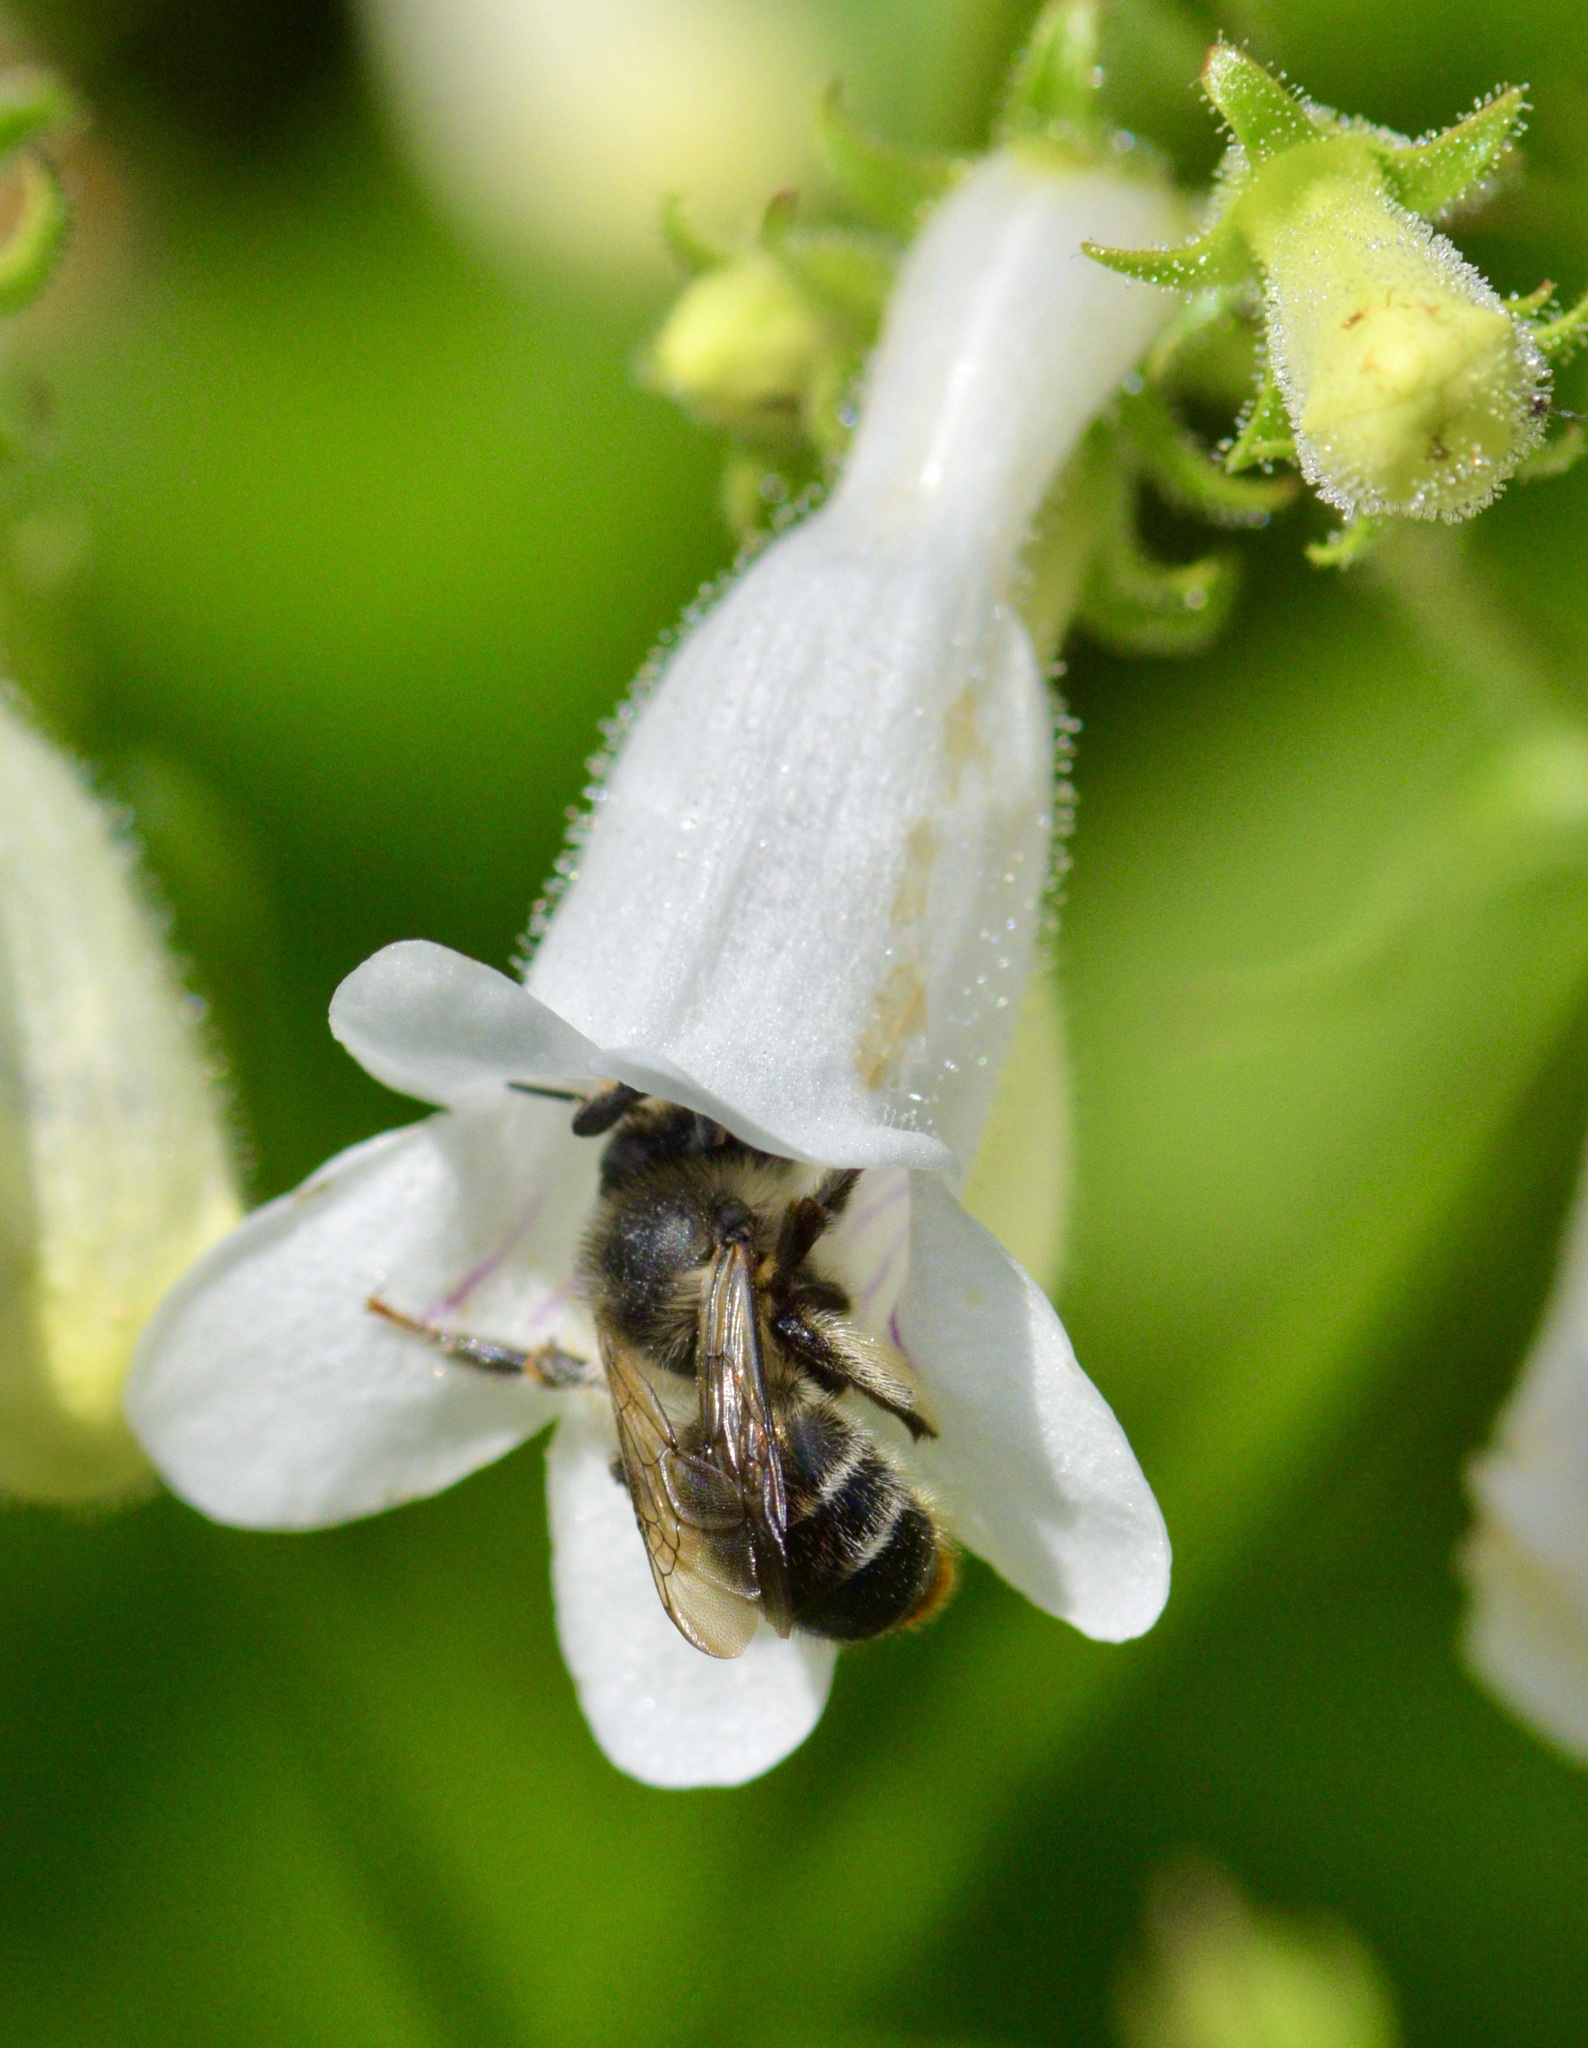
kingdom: Animalia
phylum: Arthropoda
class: Insecta
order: Hymenoptera
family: Apidae
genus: Anthophora
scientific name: Anthophora terminalis
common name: Orange-tipped wood-digger bee
